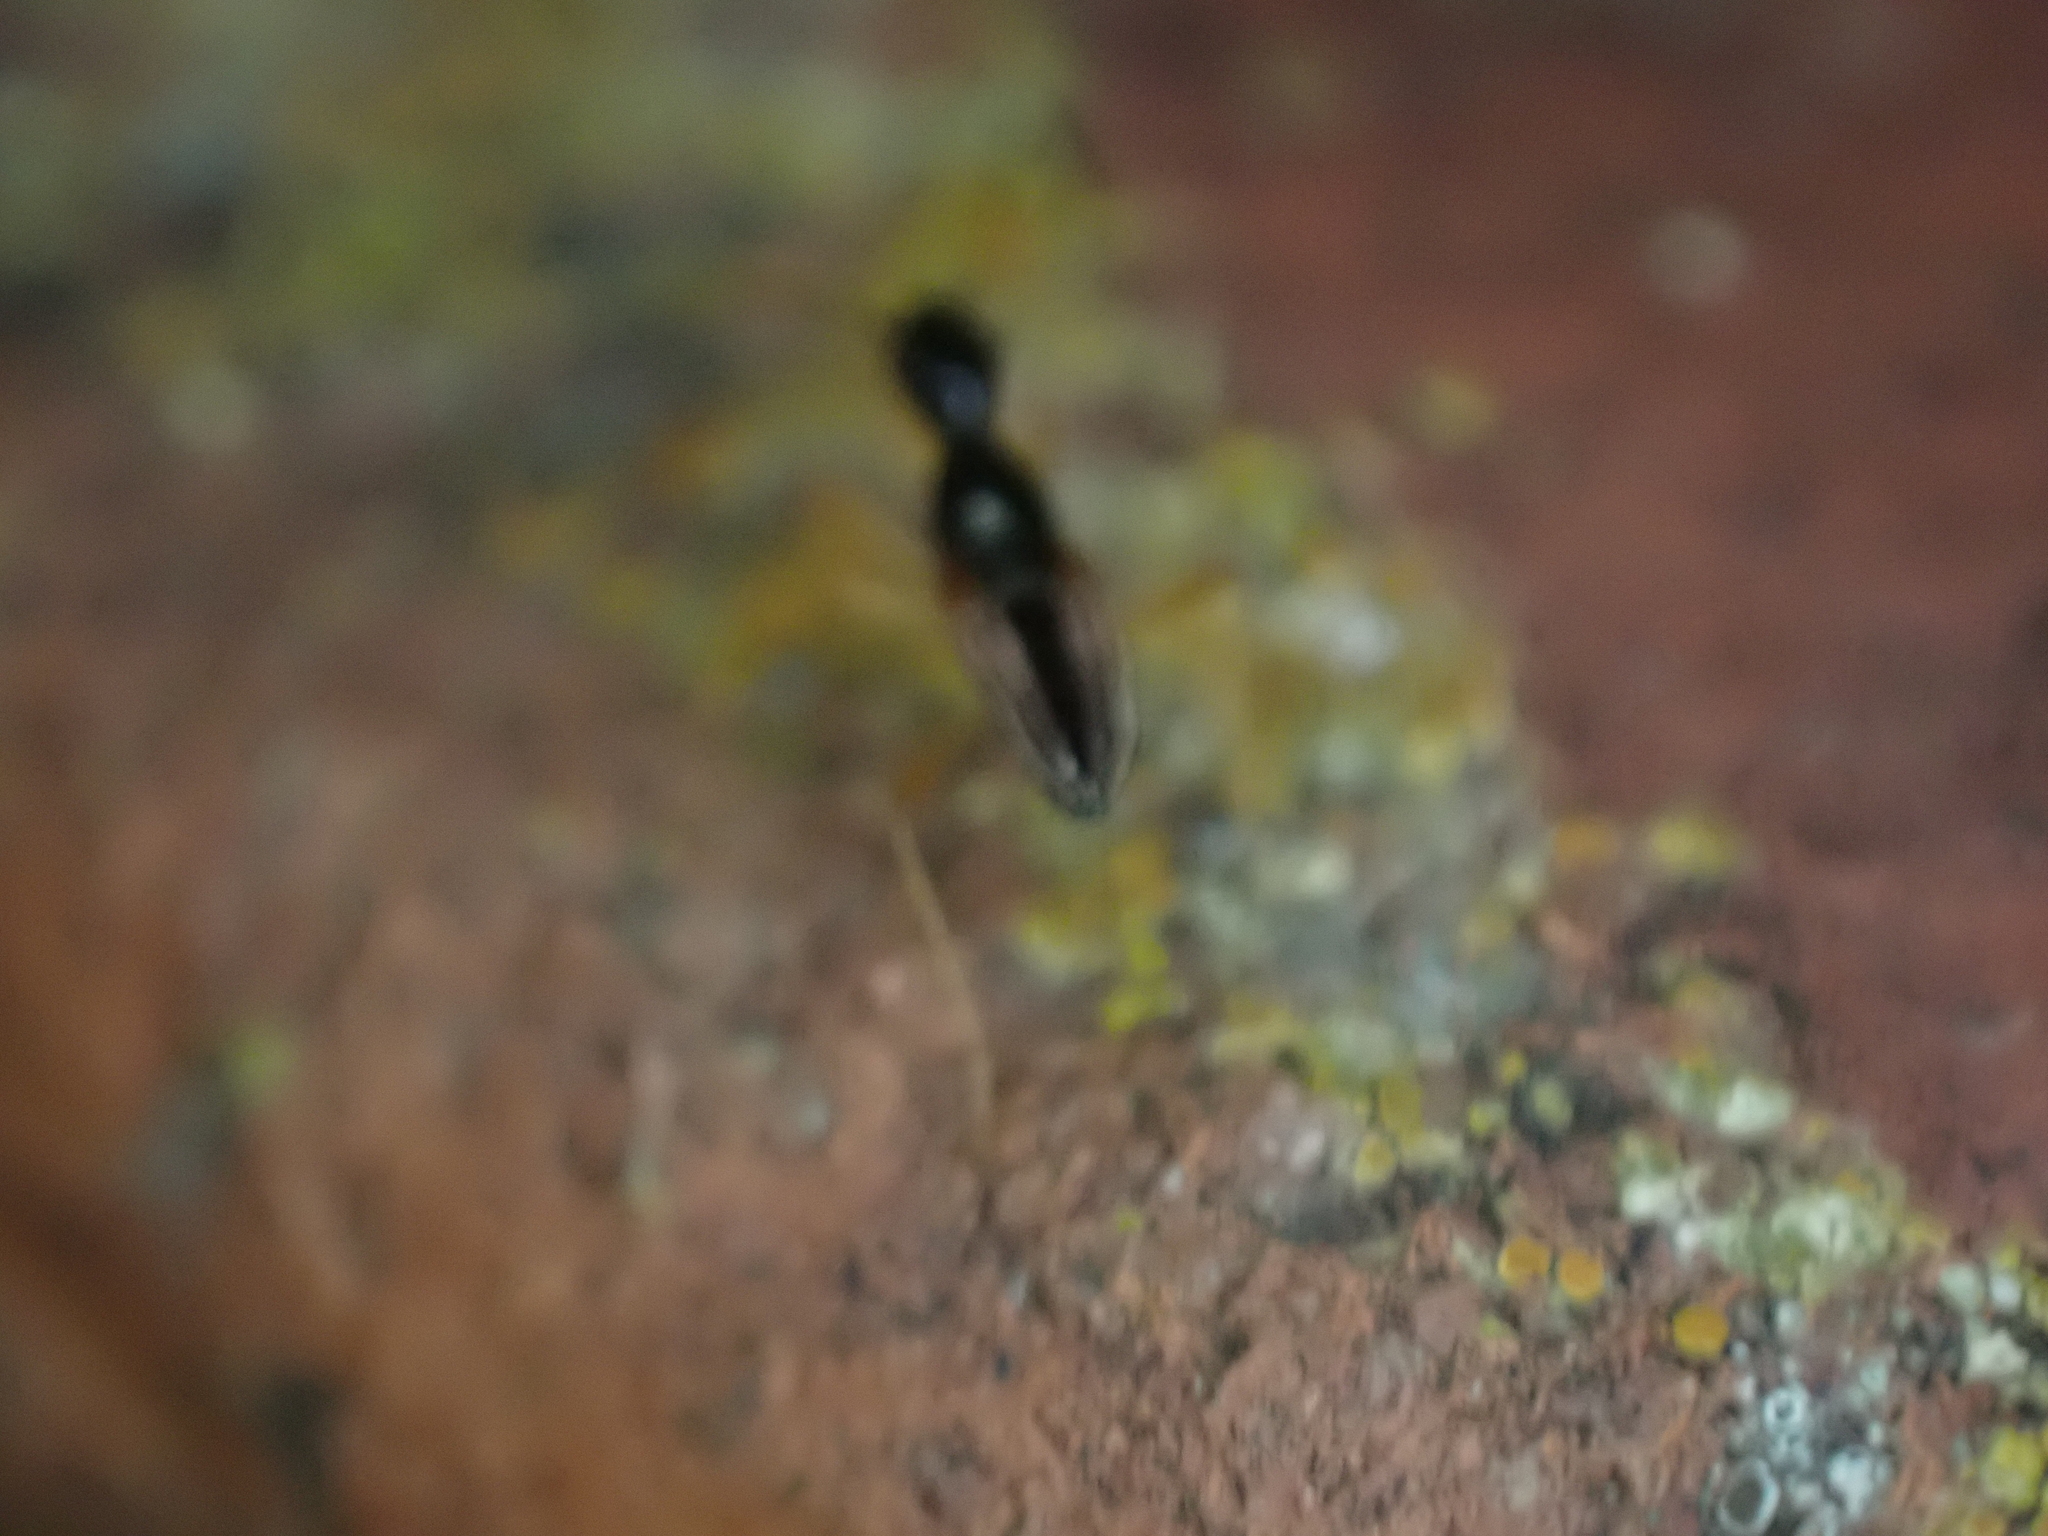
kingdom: Animalia
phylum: Arthropoda
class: Insecta
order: Hemiptera
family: Rhyparochromidae
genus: Myodocha
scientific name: Myodocha serripes
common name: Long-necked seed bug
